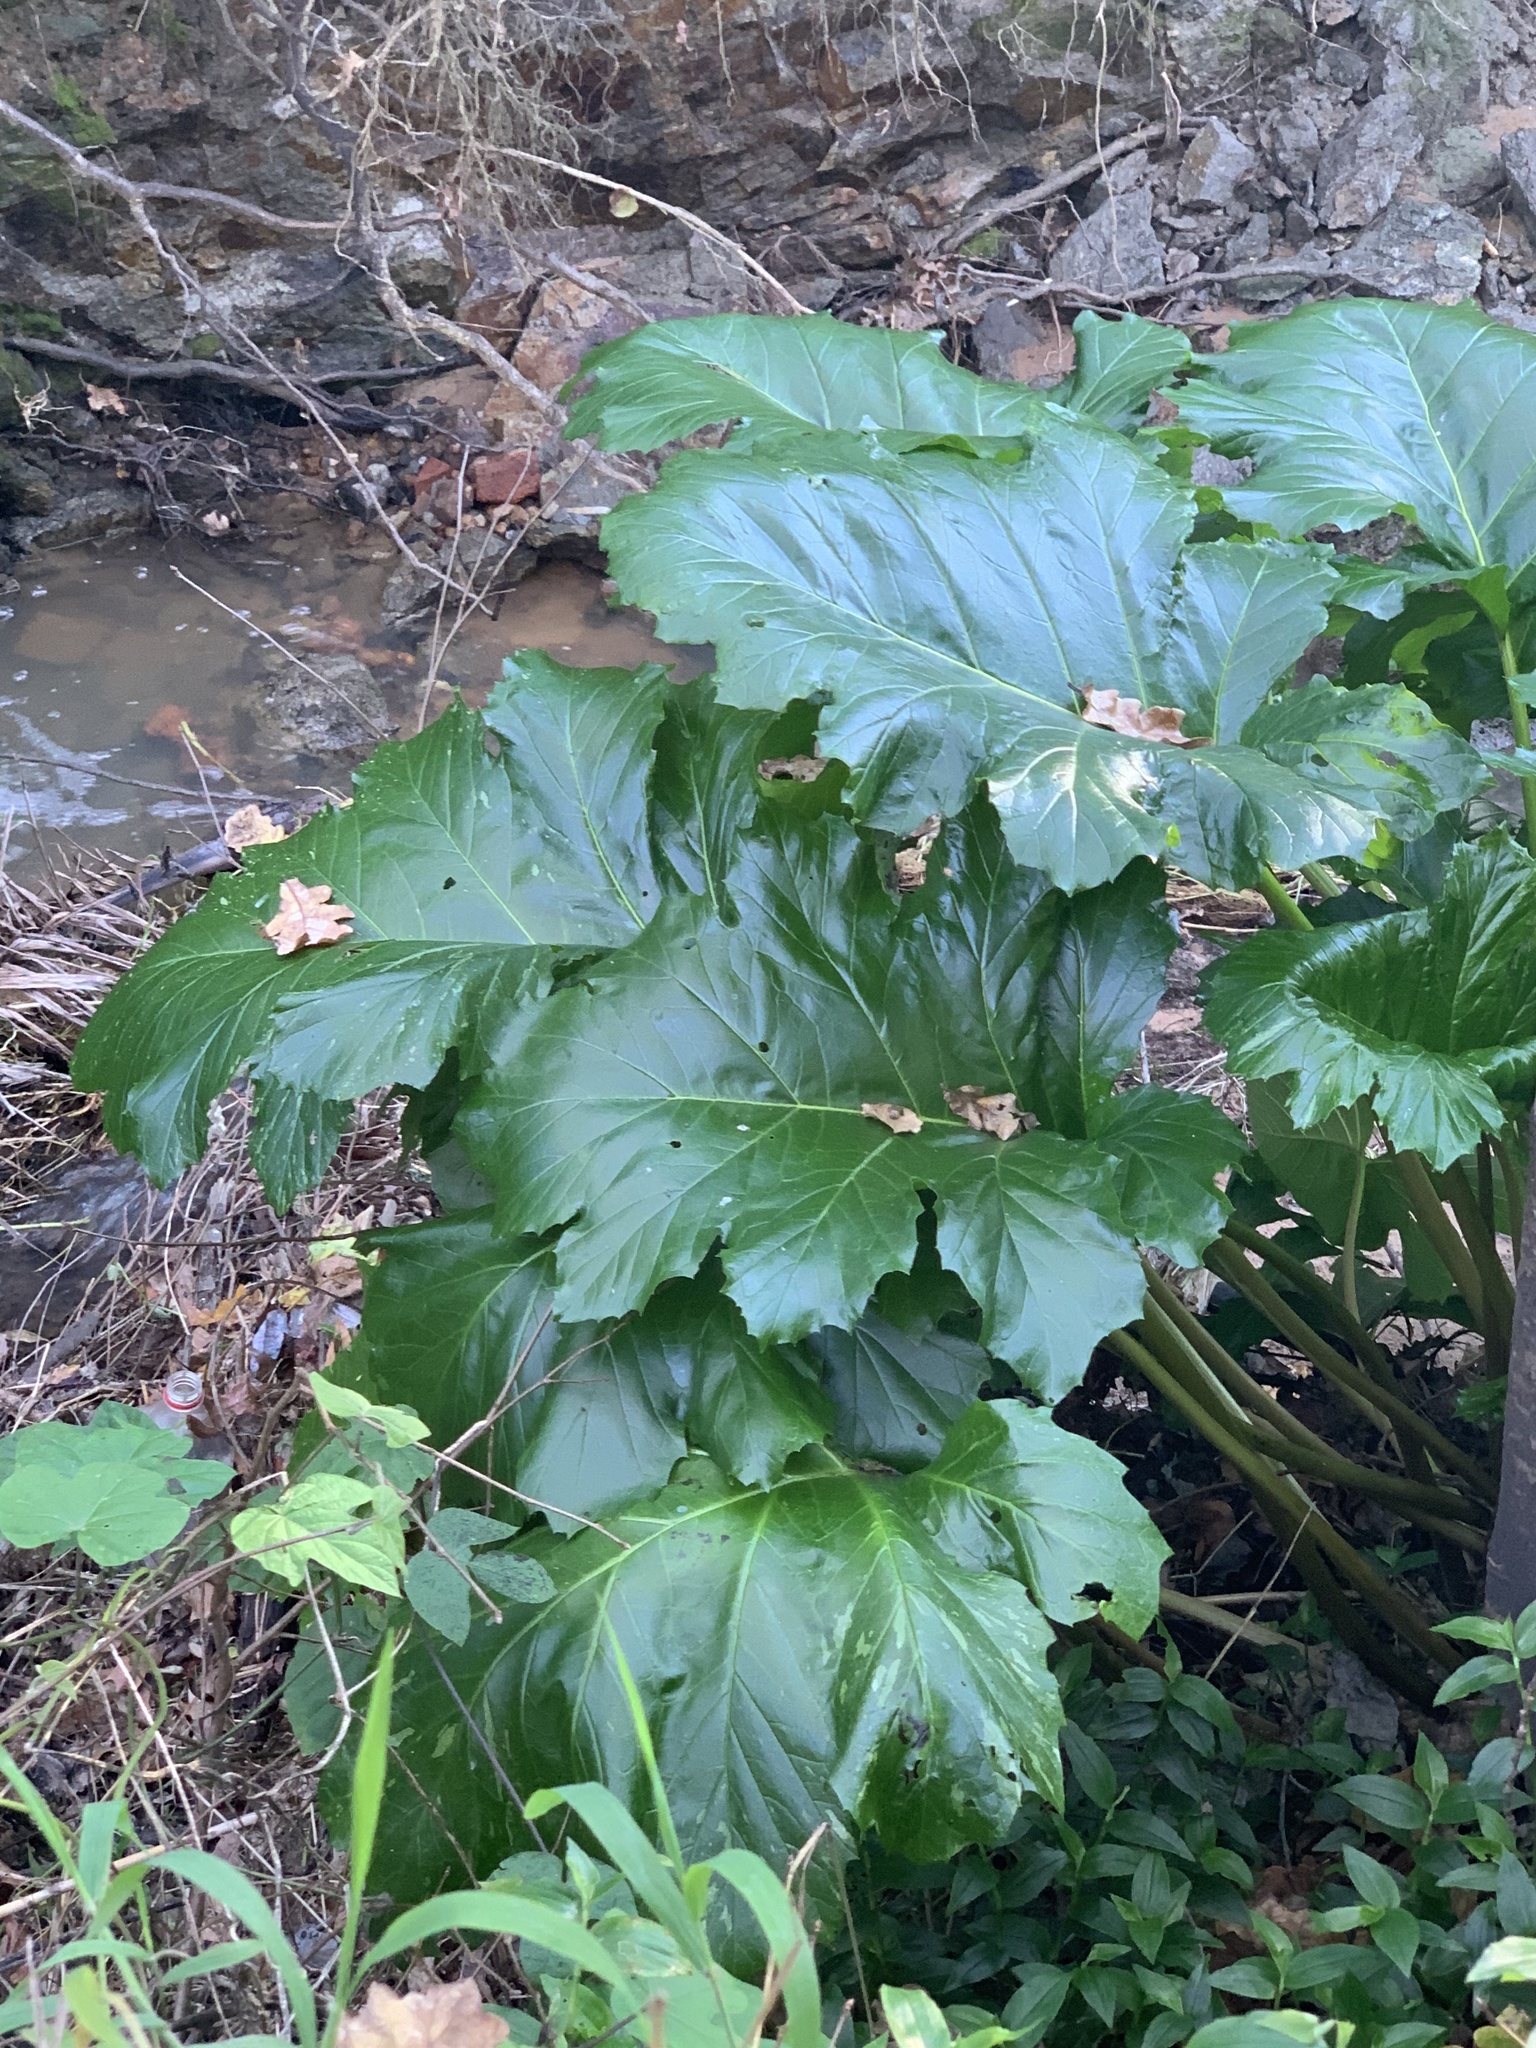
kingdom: Plantae
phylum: Tracheophyta
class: Magnoliopsida
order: Lamiales
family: Acanthaceae
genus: Acanthus
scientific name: Acanthus mollis
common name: Bear's-breech
